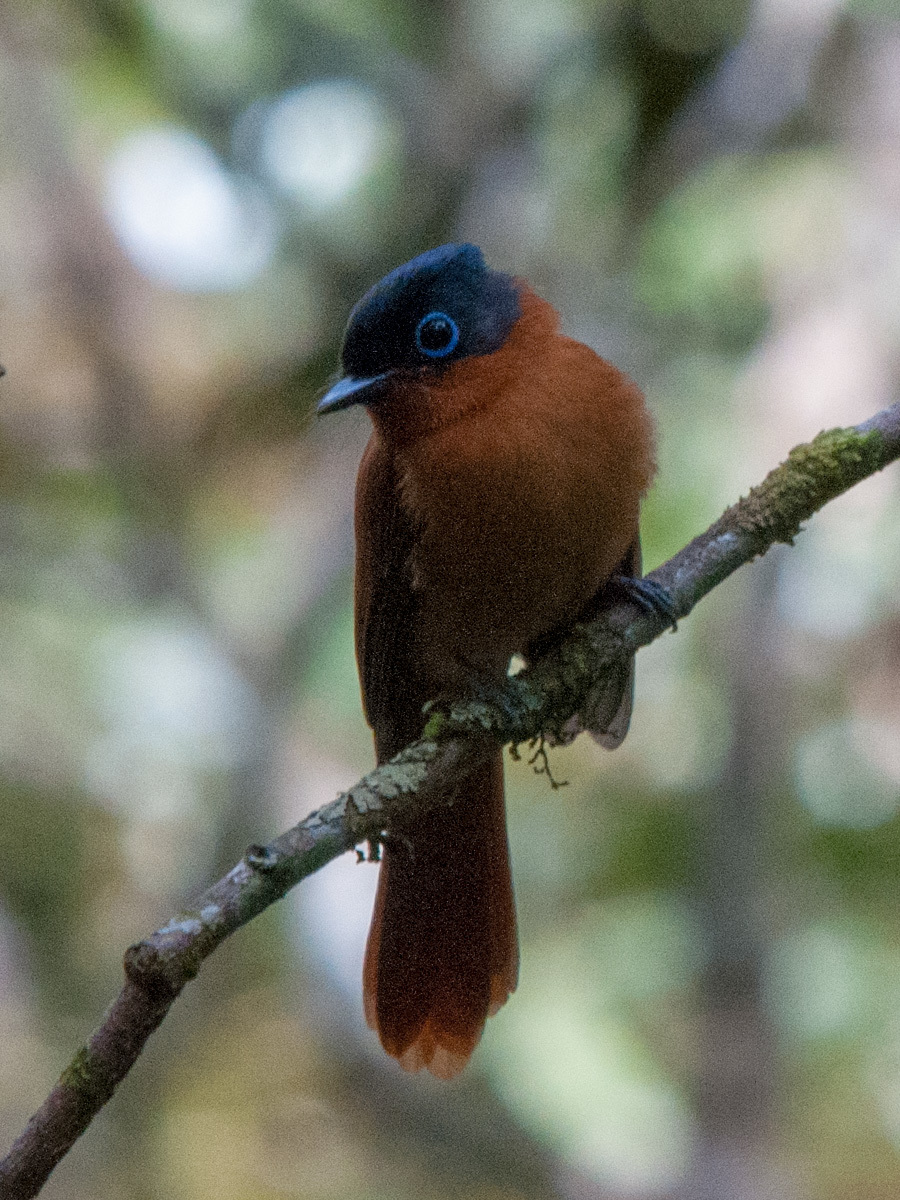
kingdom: Animalia
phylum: Chordata
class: Aves
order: Passeriformes
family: Monarchidae
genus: Terpsiphone
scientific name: Terpsiphone mutata
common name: Malagasy paradise flycatcher
